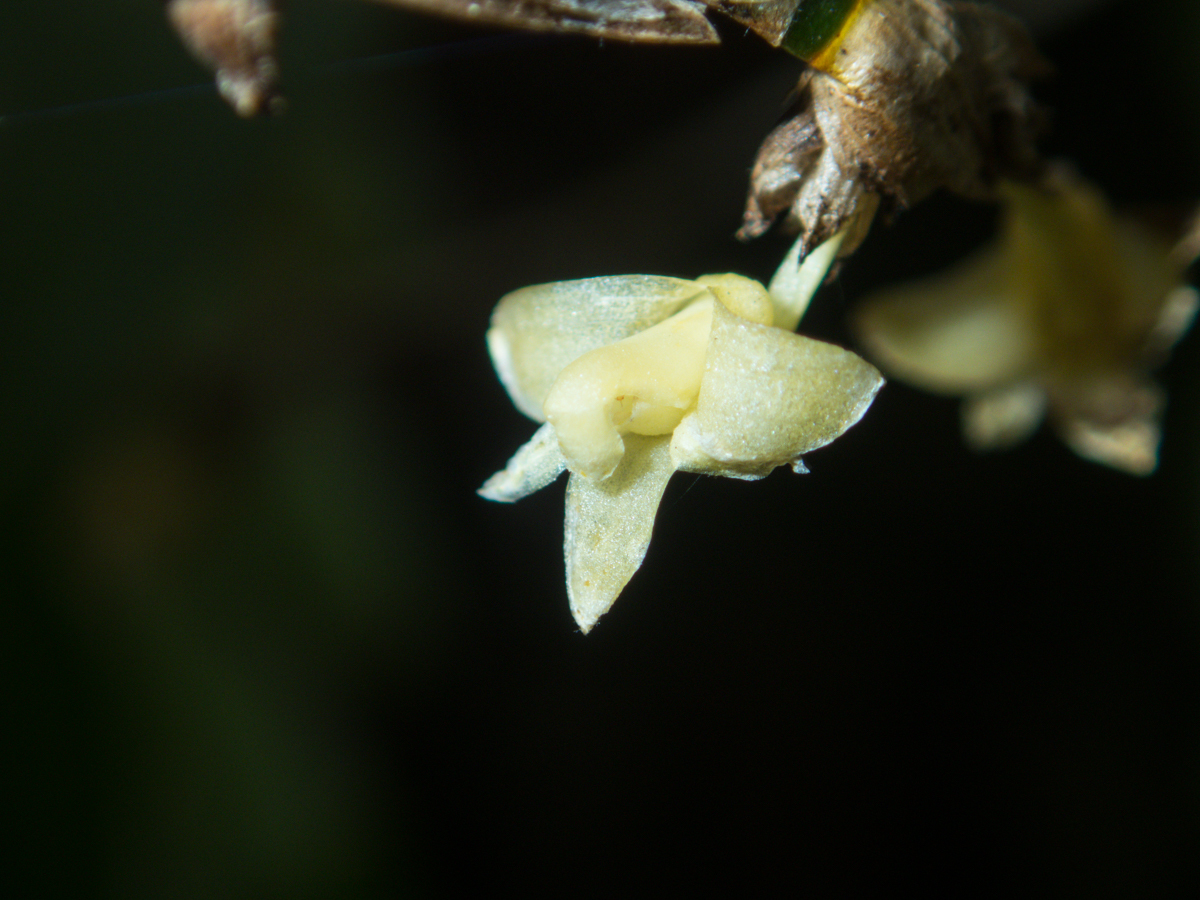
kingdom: Plantae
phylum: Tracheophyta
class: Liliopsida
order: Asparagales
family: Orchidaceae
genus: Dendrobium
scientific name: Dendrobium aloifolium
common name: Aloe-like dendrobium
